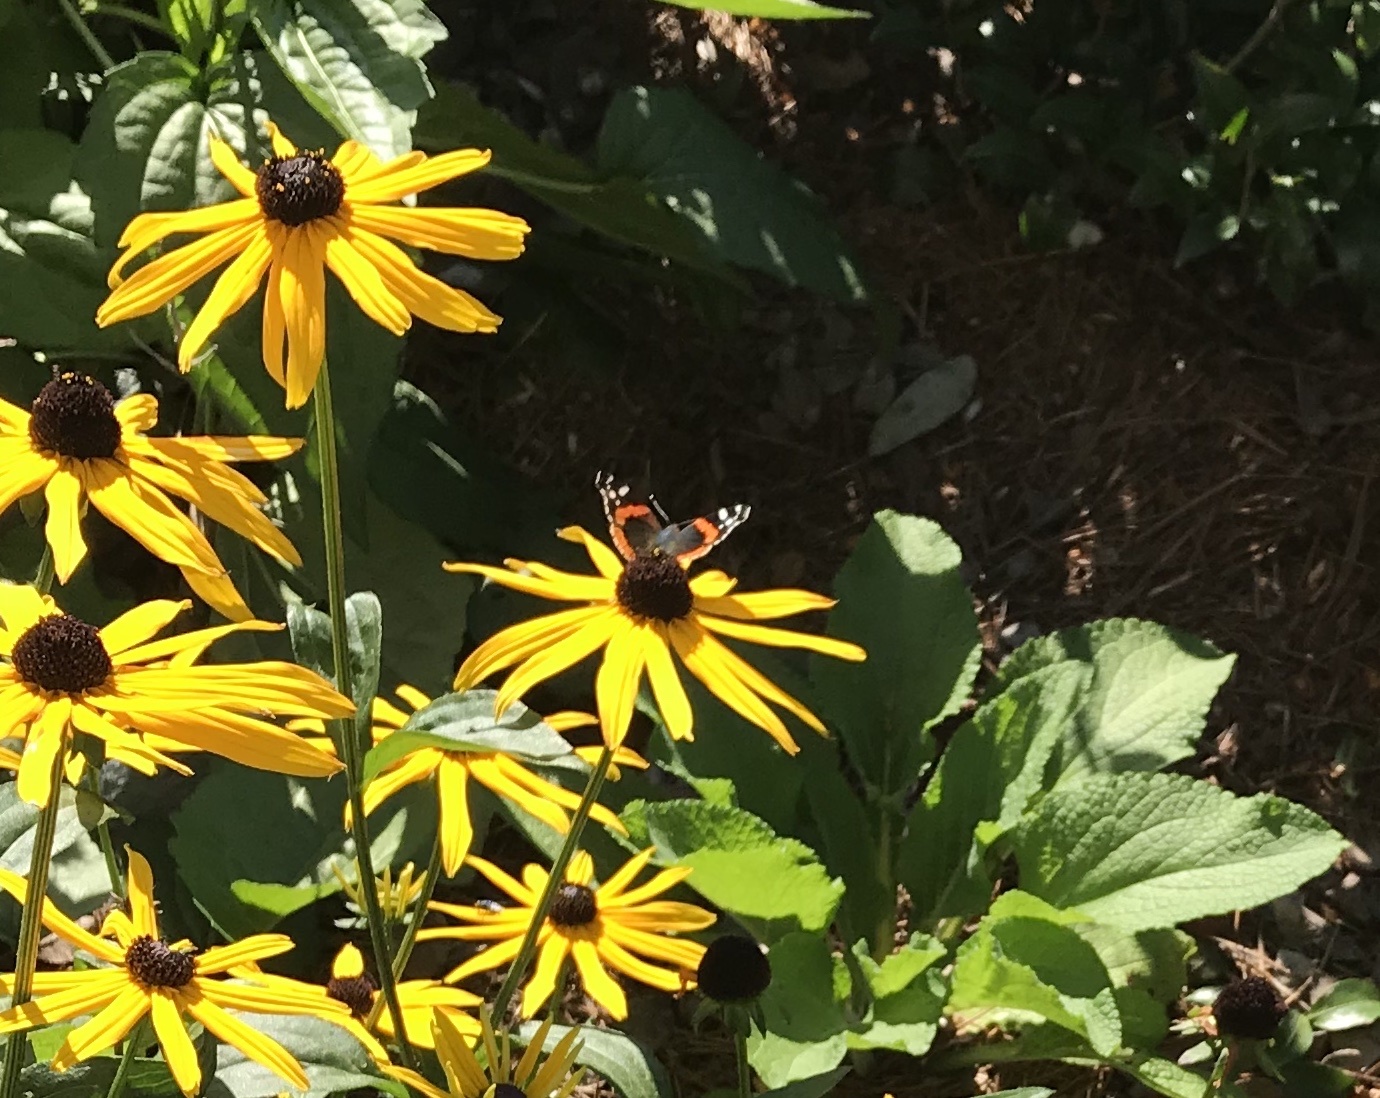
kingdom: Animalia
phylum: Arthropoda
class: Insecta
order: Lepidoptera
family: Nymphalidae
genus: Vanessa
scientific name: Vanessa atalanta
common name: Red admiral
